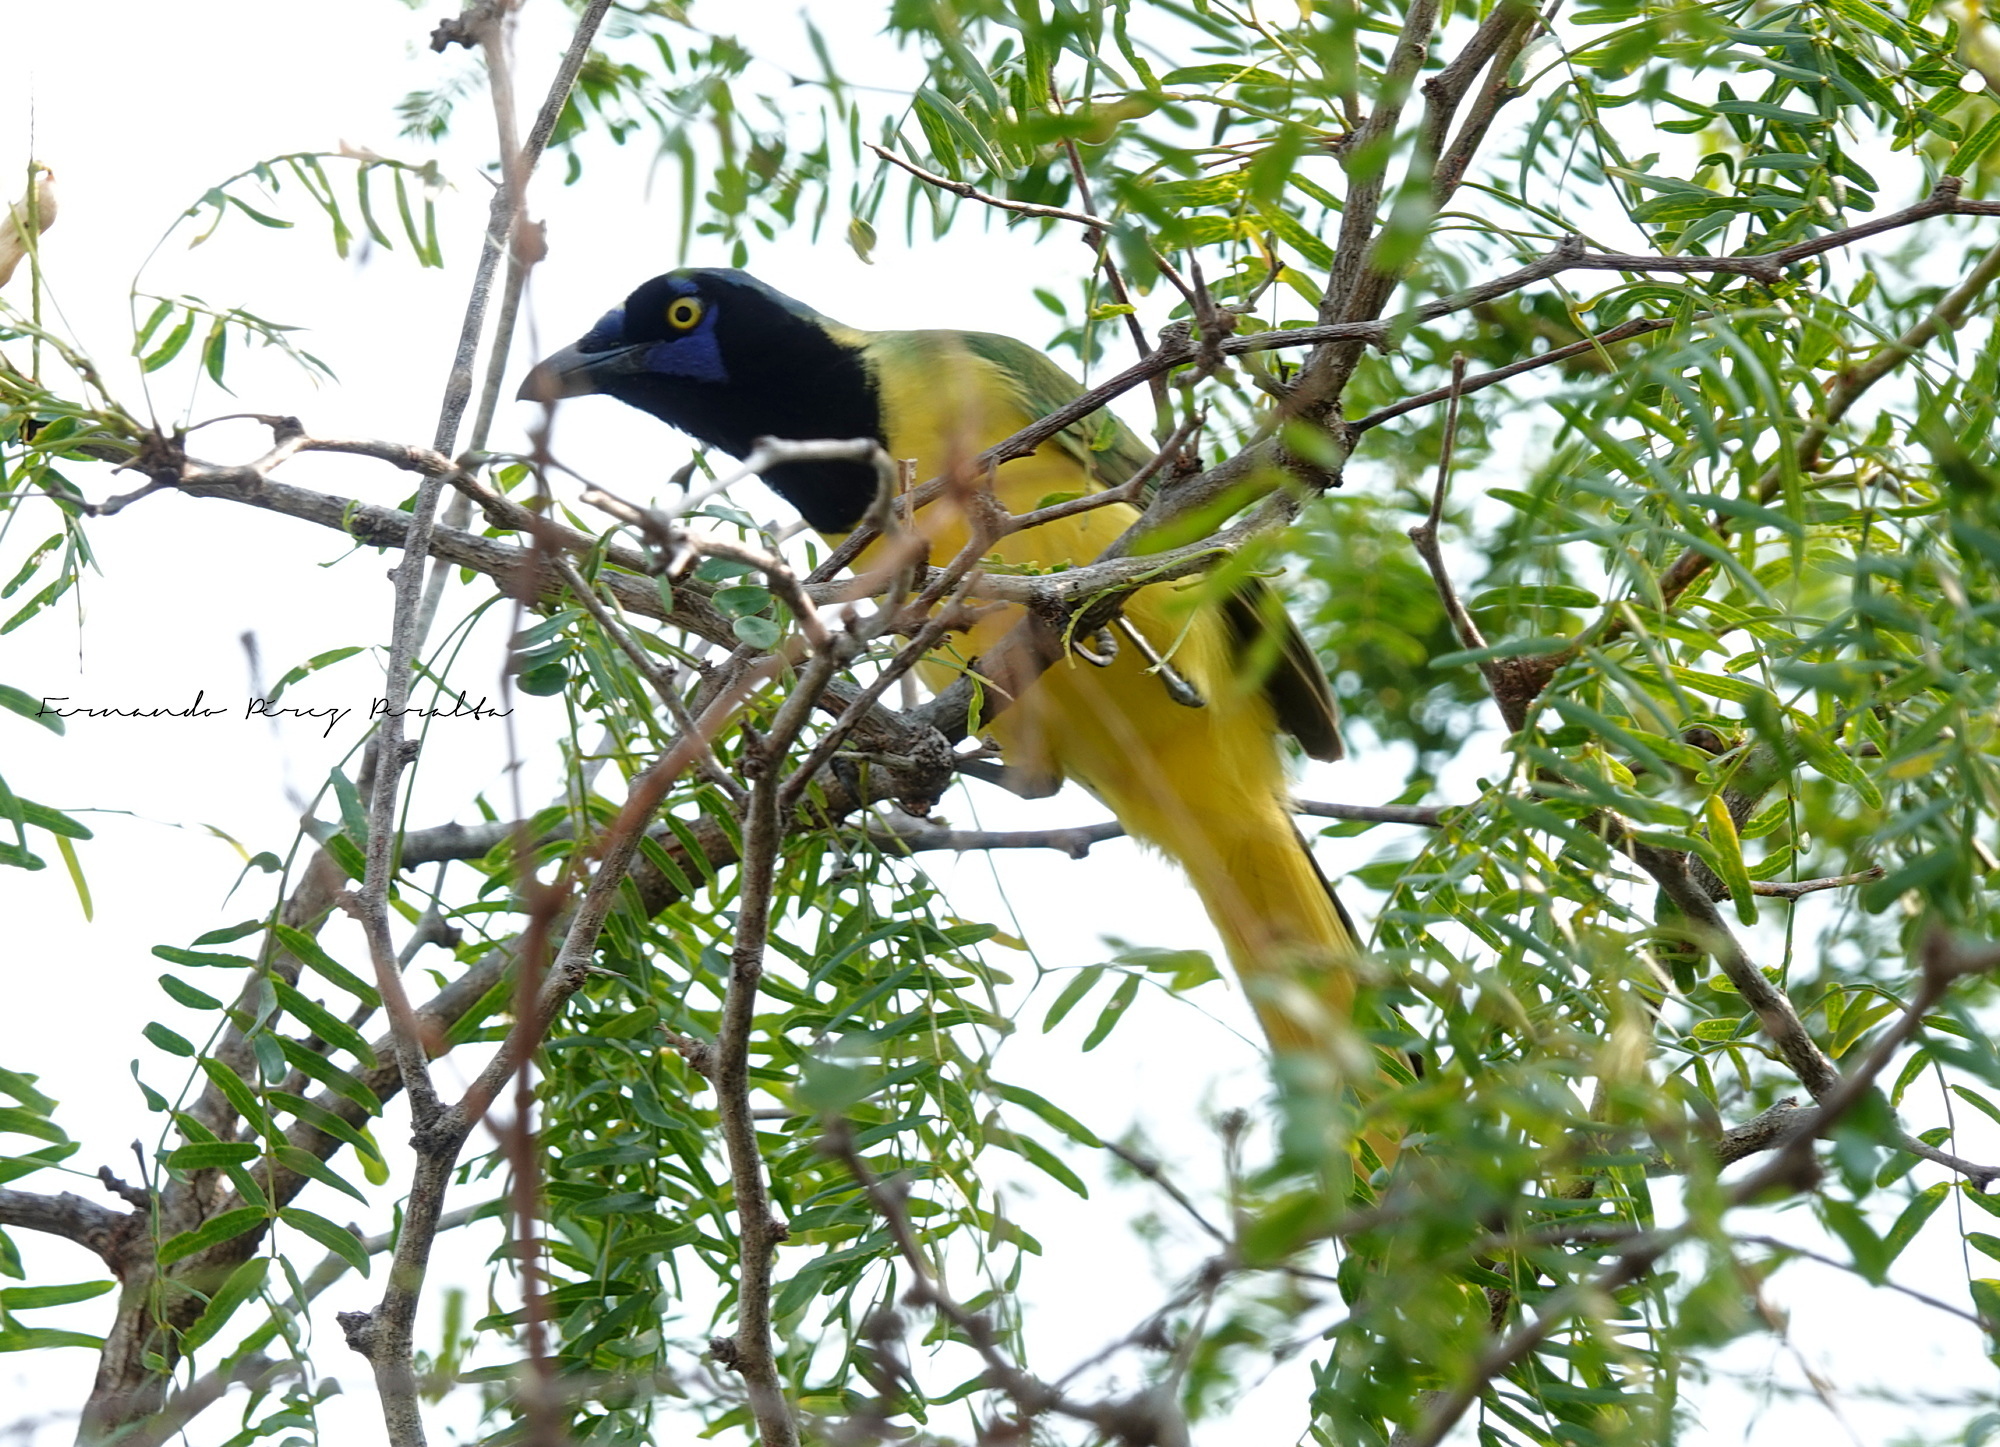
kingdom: Animalia
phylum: Chordata
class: Aves
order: Passeriformes
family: Corvidae
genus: Cyanocorax
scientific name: Cyanocorax yncas
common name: Green jay
